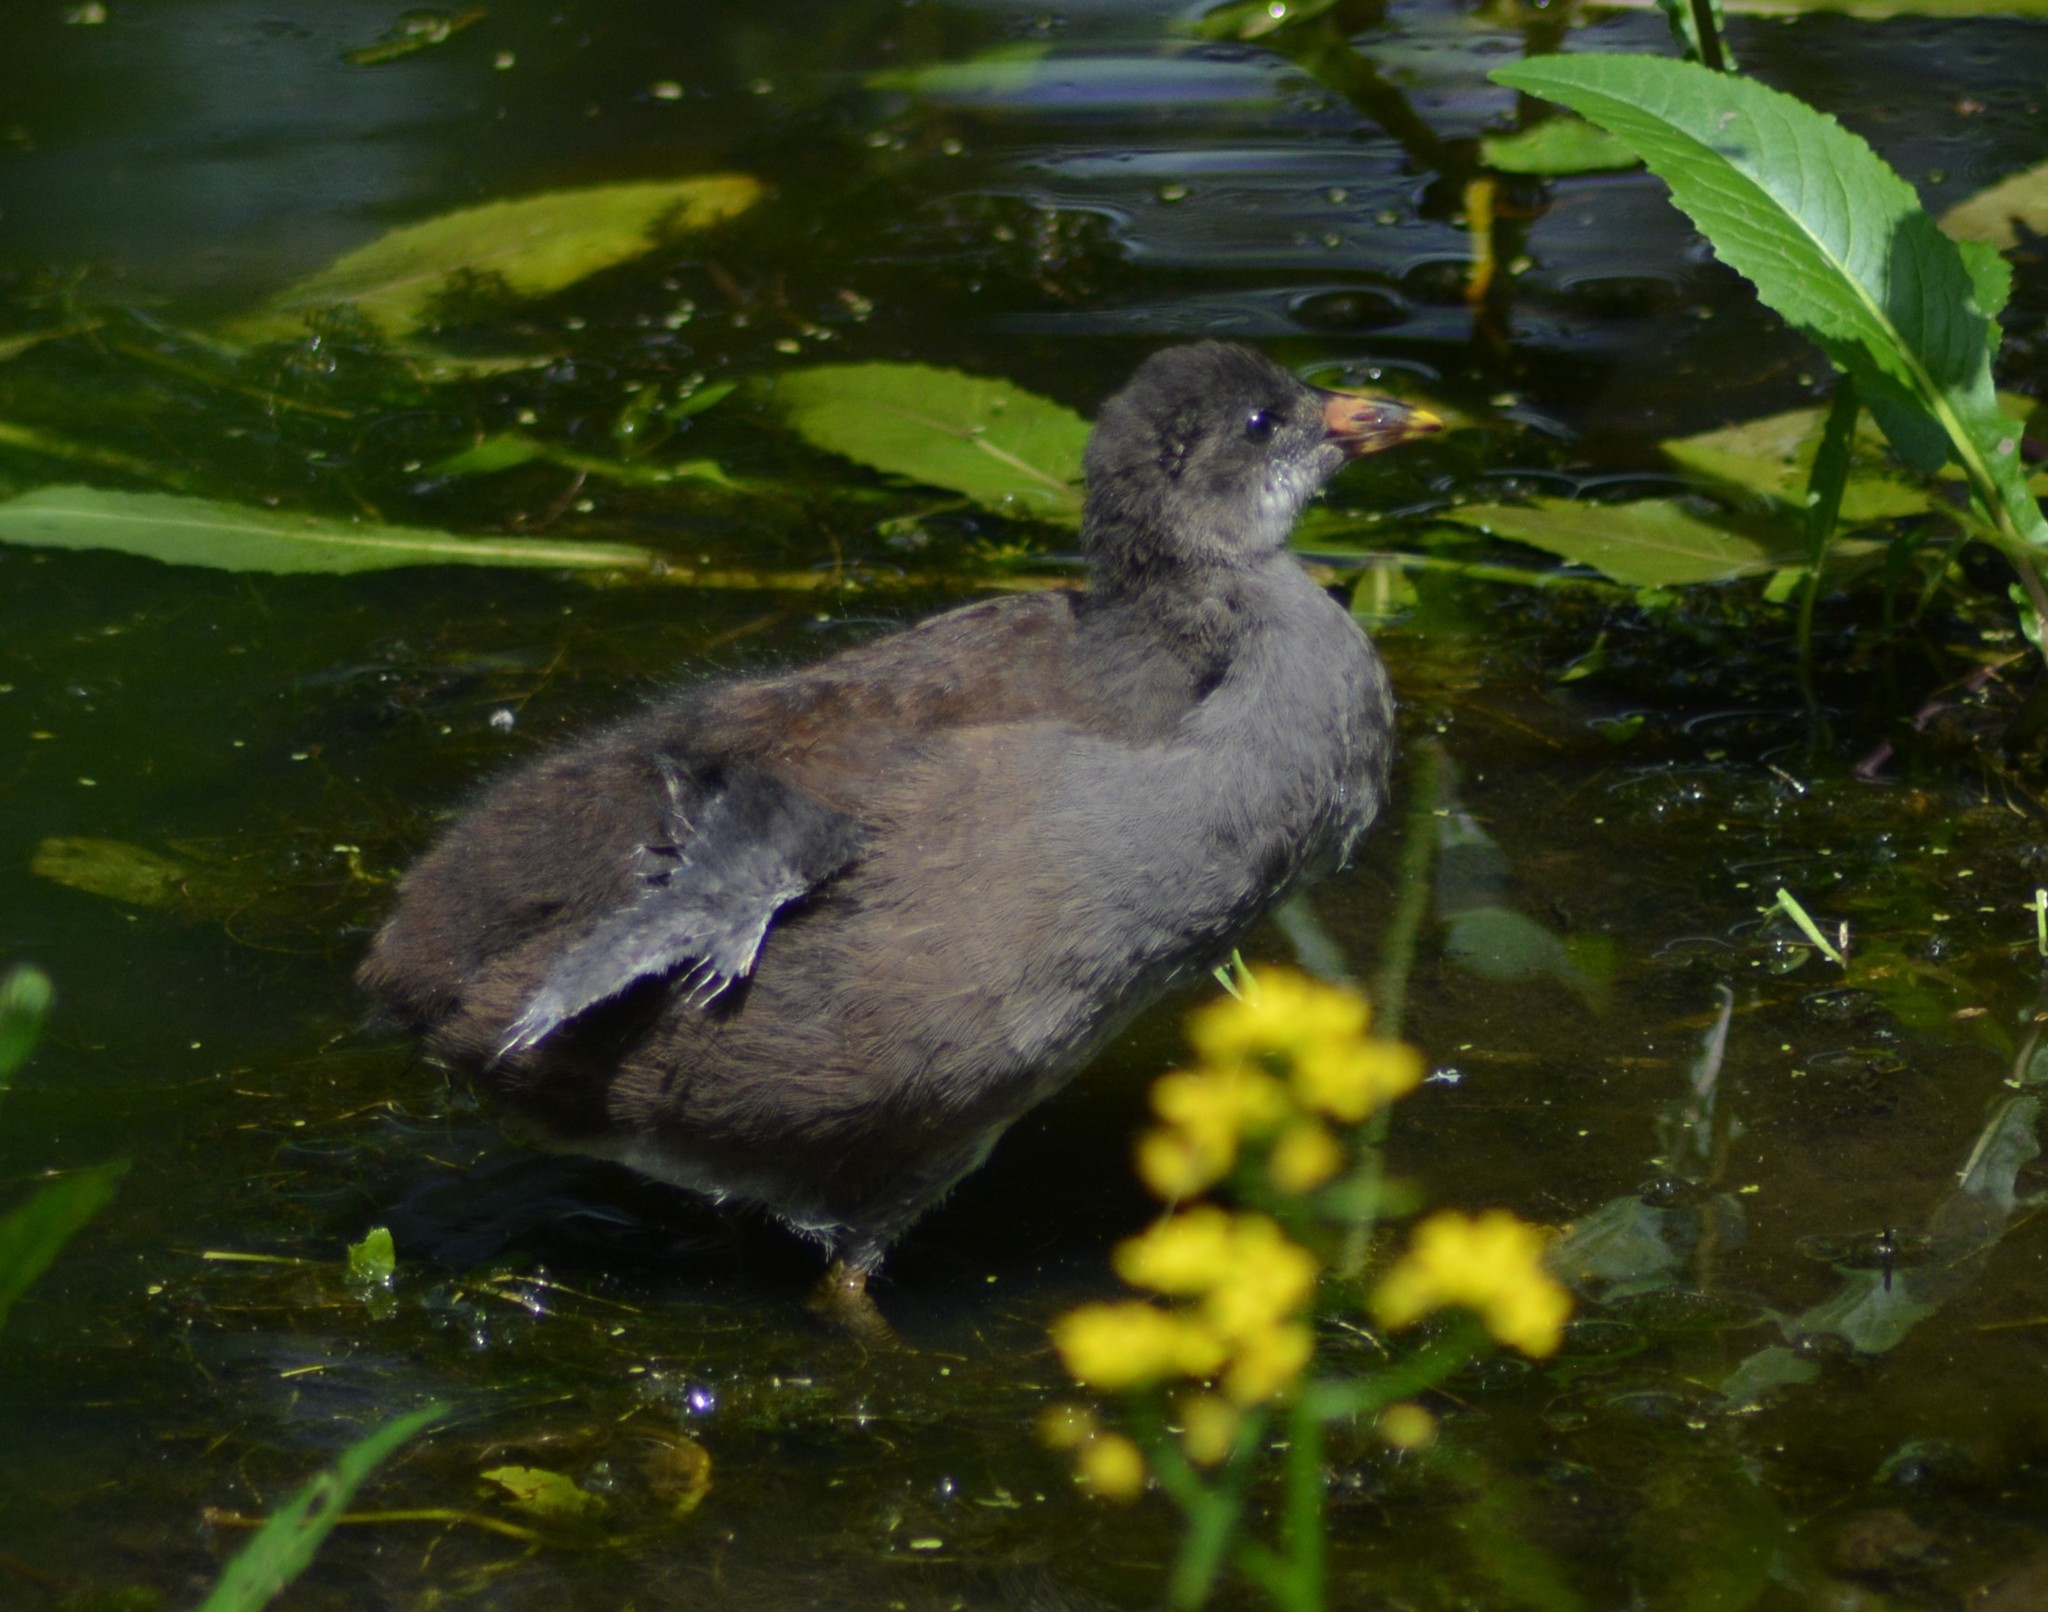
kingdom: Animalia
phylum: Chordata
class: Aves
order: Gruiformes
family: Rallidae
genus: Gallinula
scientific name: Gallinula chloropus
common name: Common moorhen
